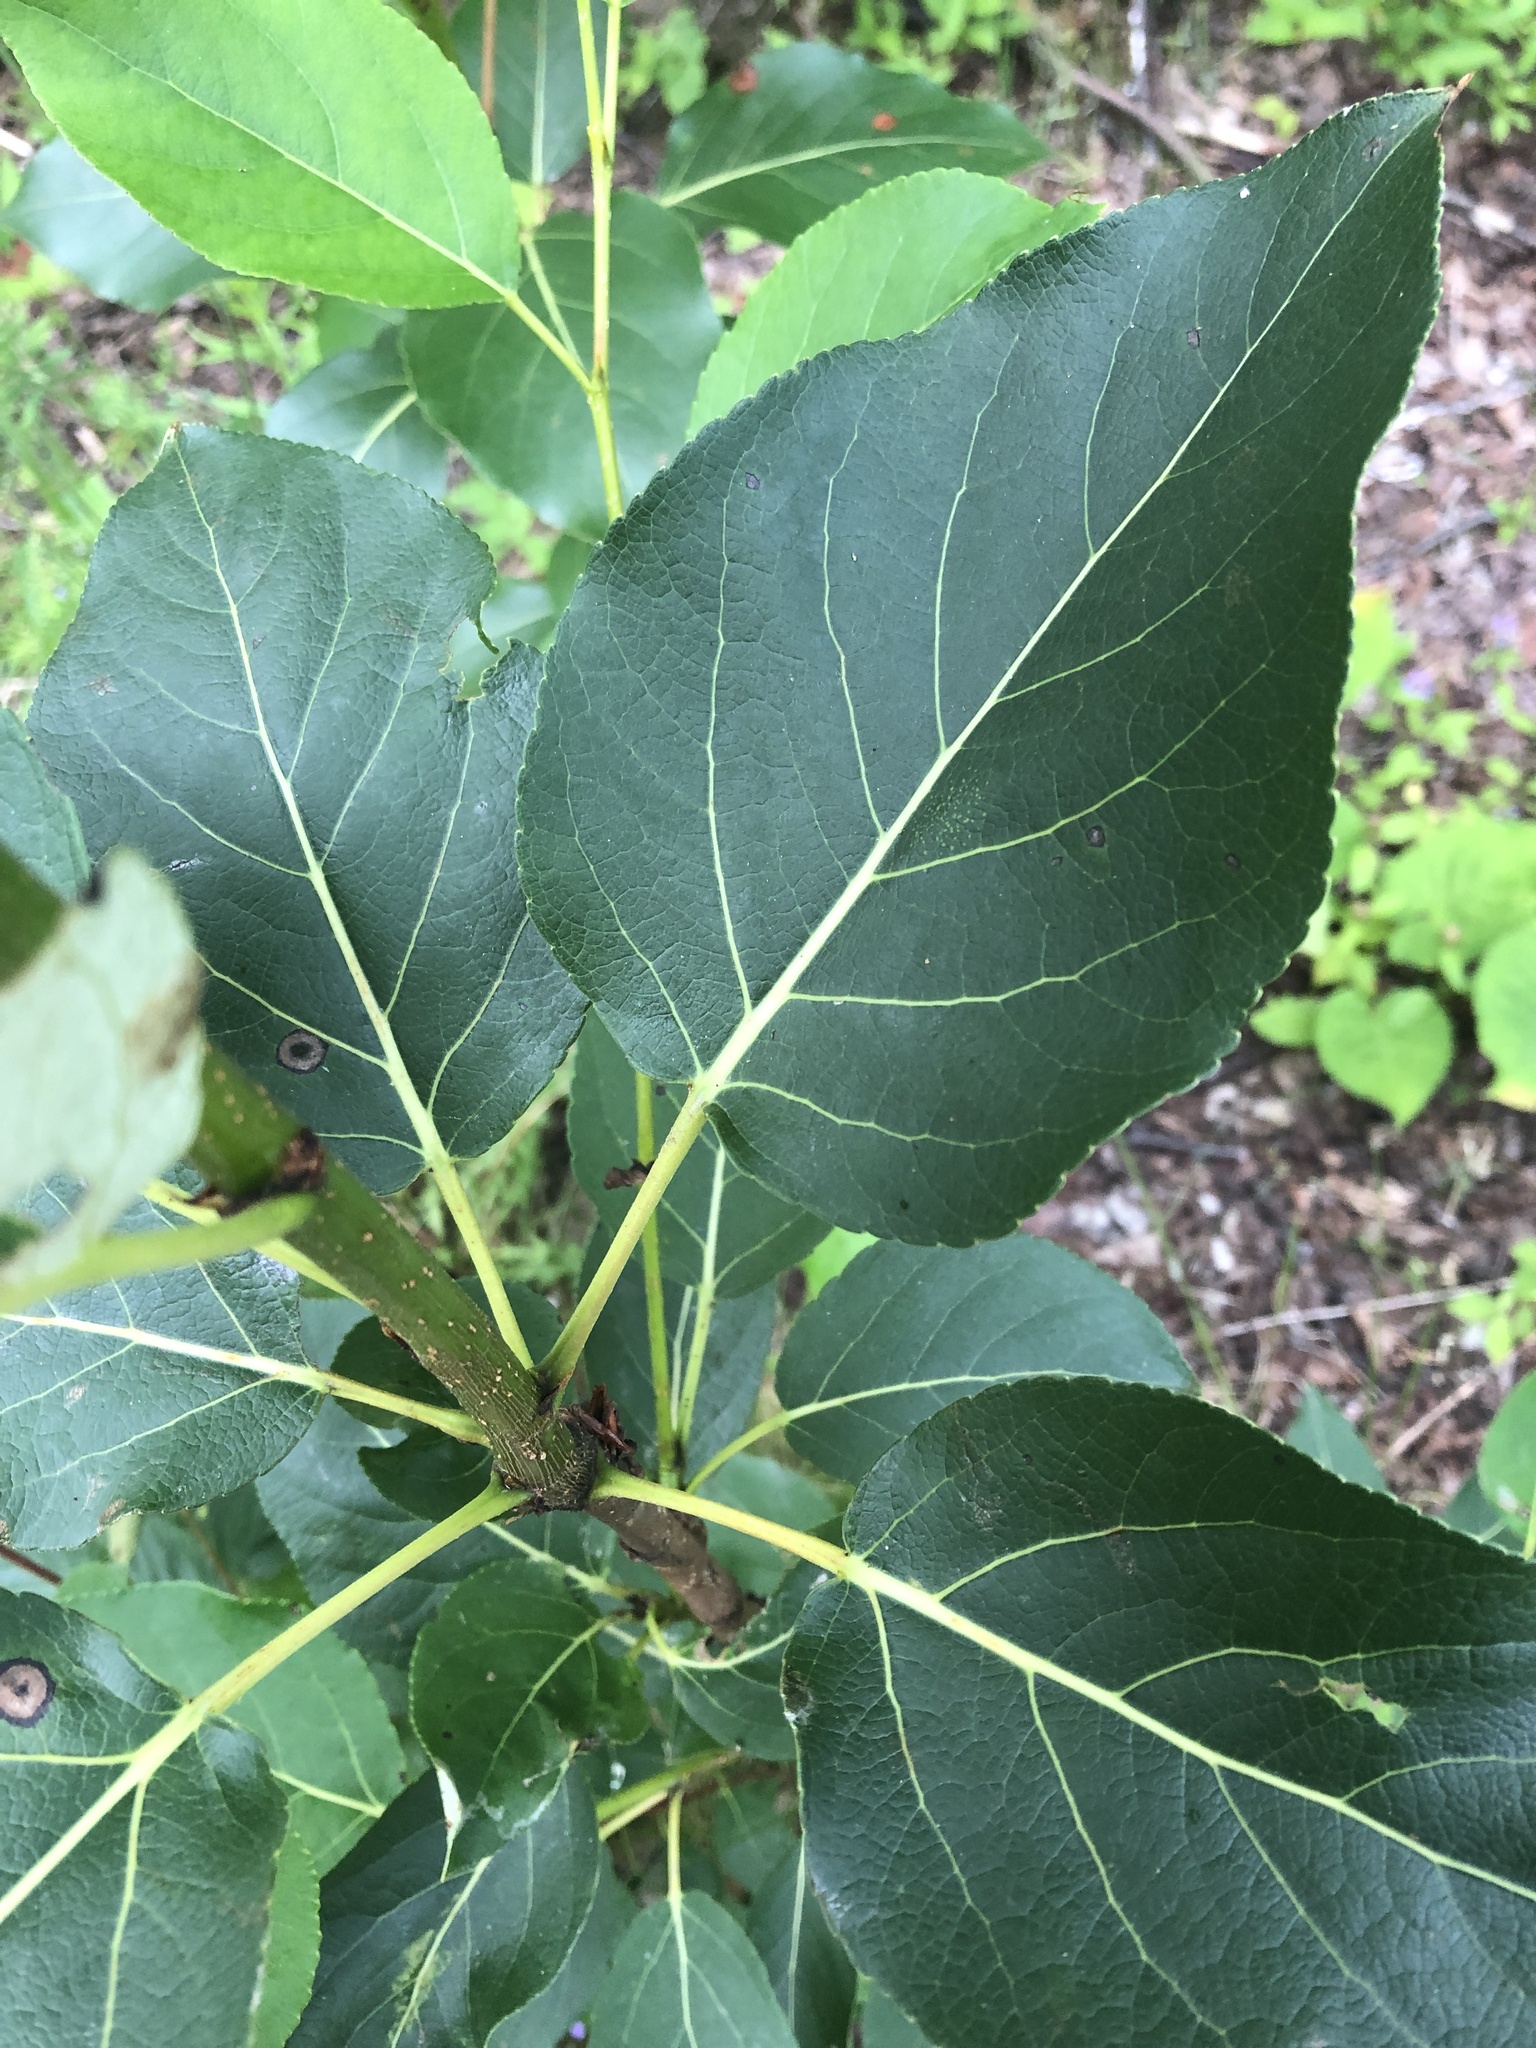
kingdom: Plantae
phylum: Tracheophyta
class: Magnoliopsida
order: Malpighiales
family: Salicaceae
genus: Populus
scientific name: Populus balsamifera
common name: Balsam poplar
